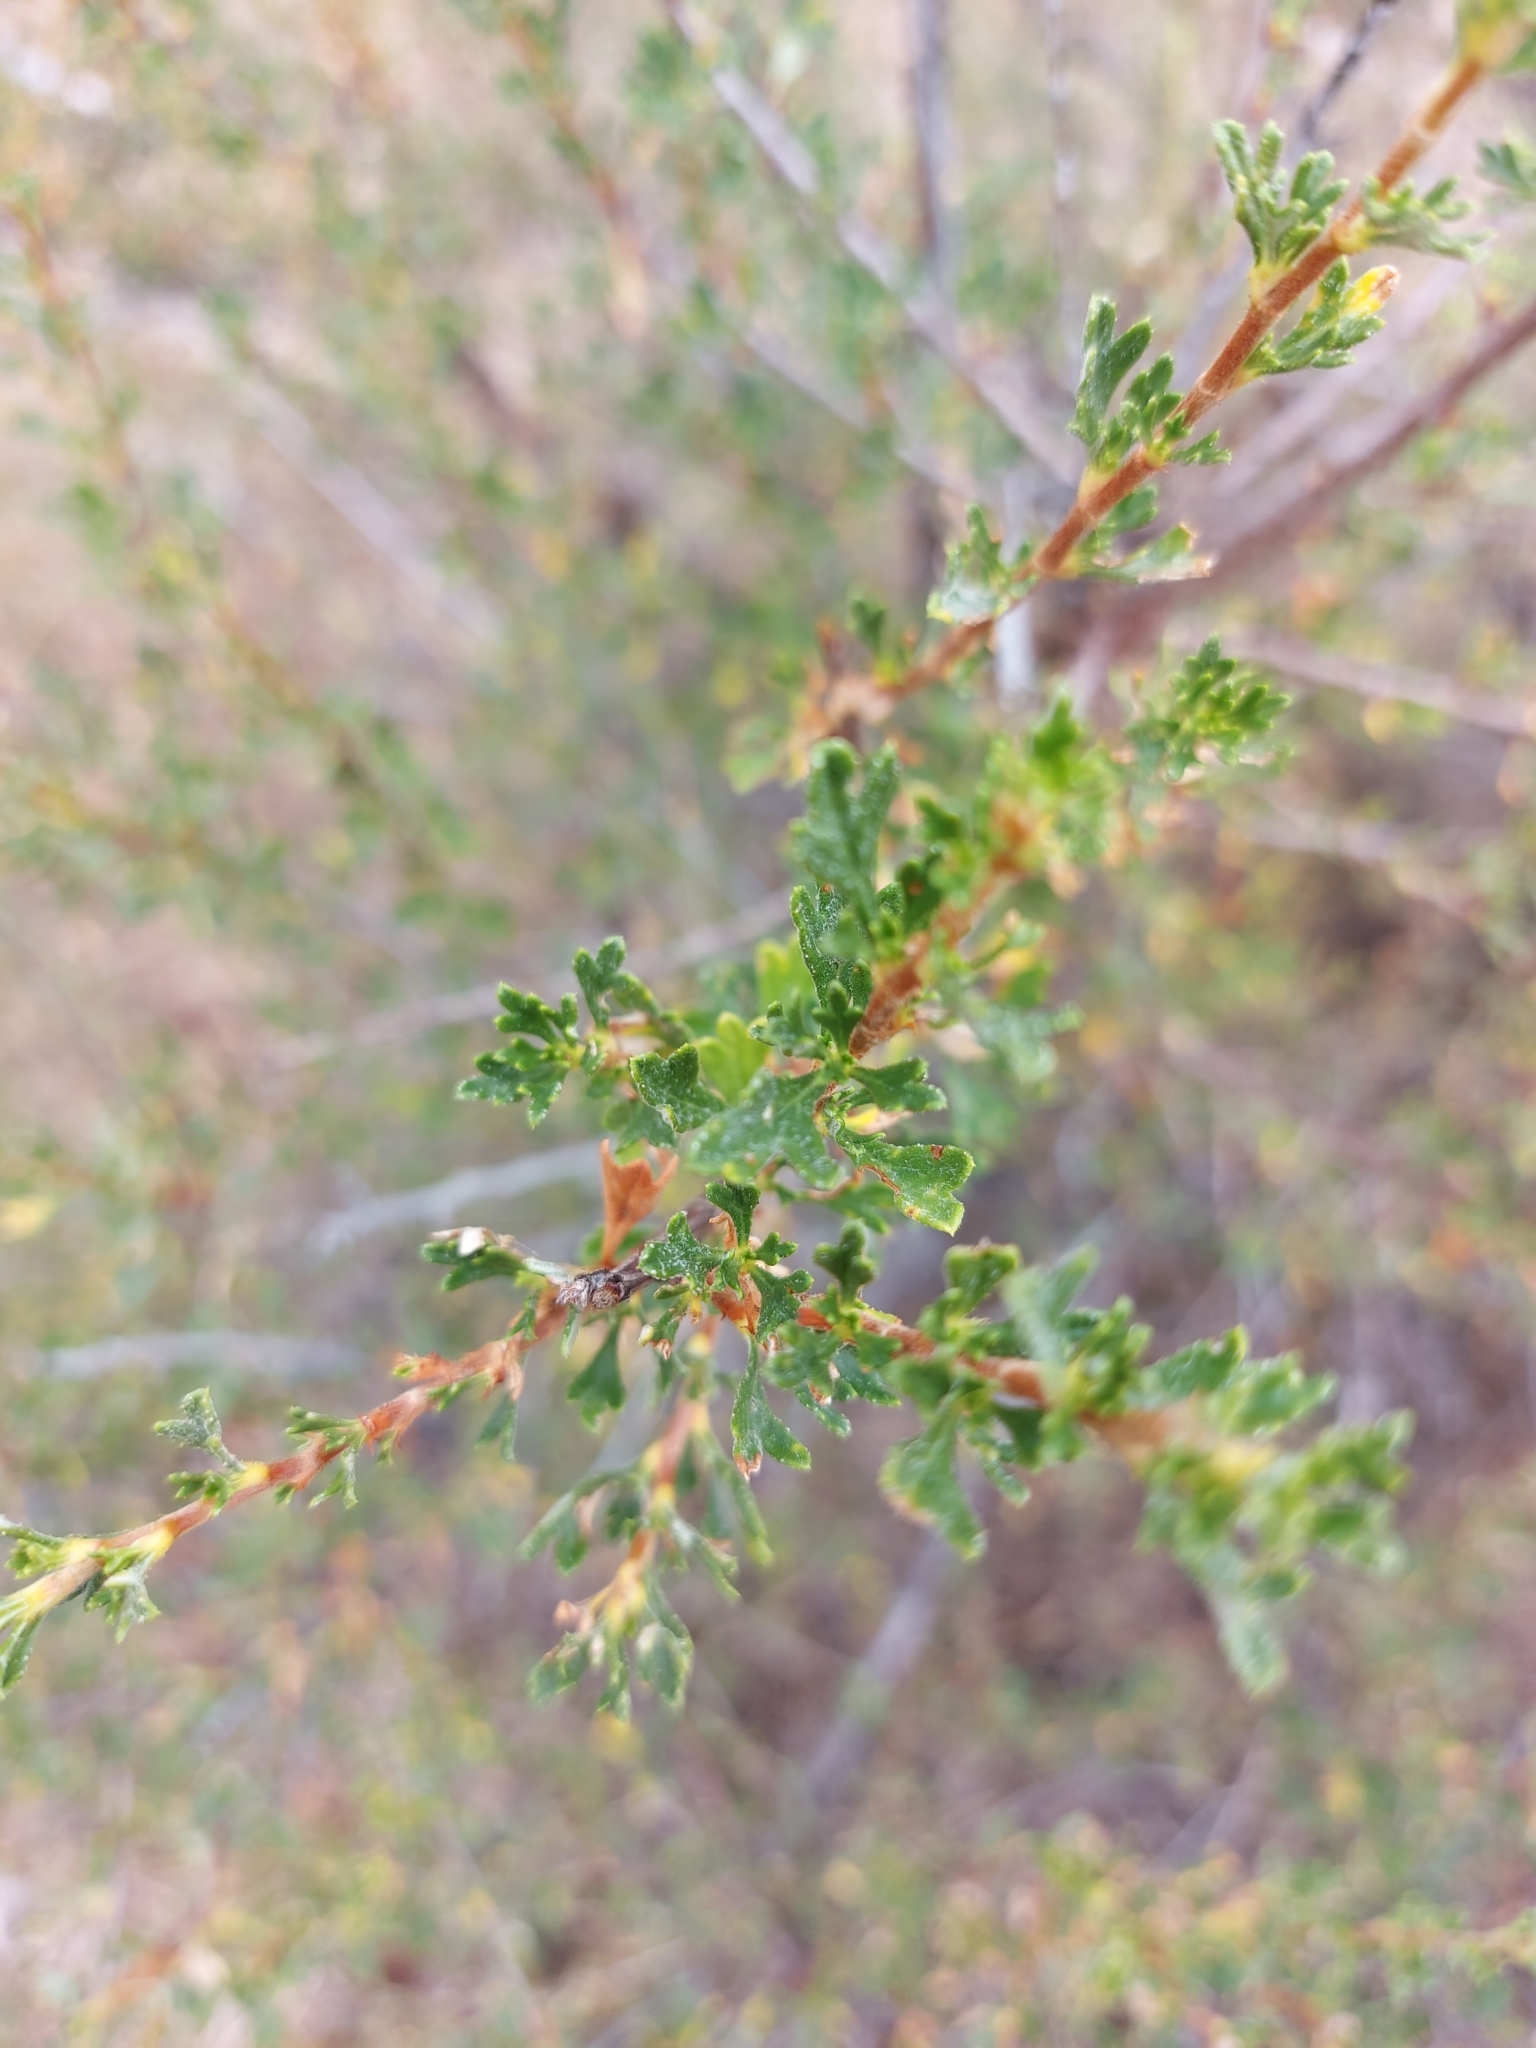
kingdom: Plantae
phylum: Tracheophyta
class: Magnoliopsida
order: Rosales
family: Rosaceae
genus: Purshia
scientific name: Purshia tridentata
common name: Antelope bitterbrush
